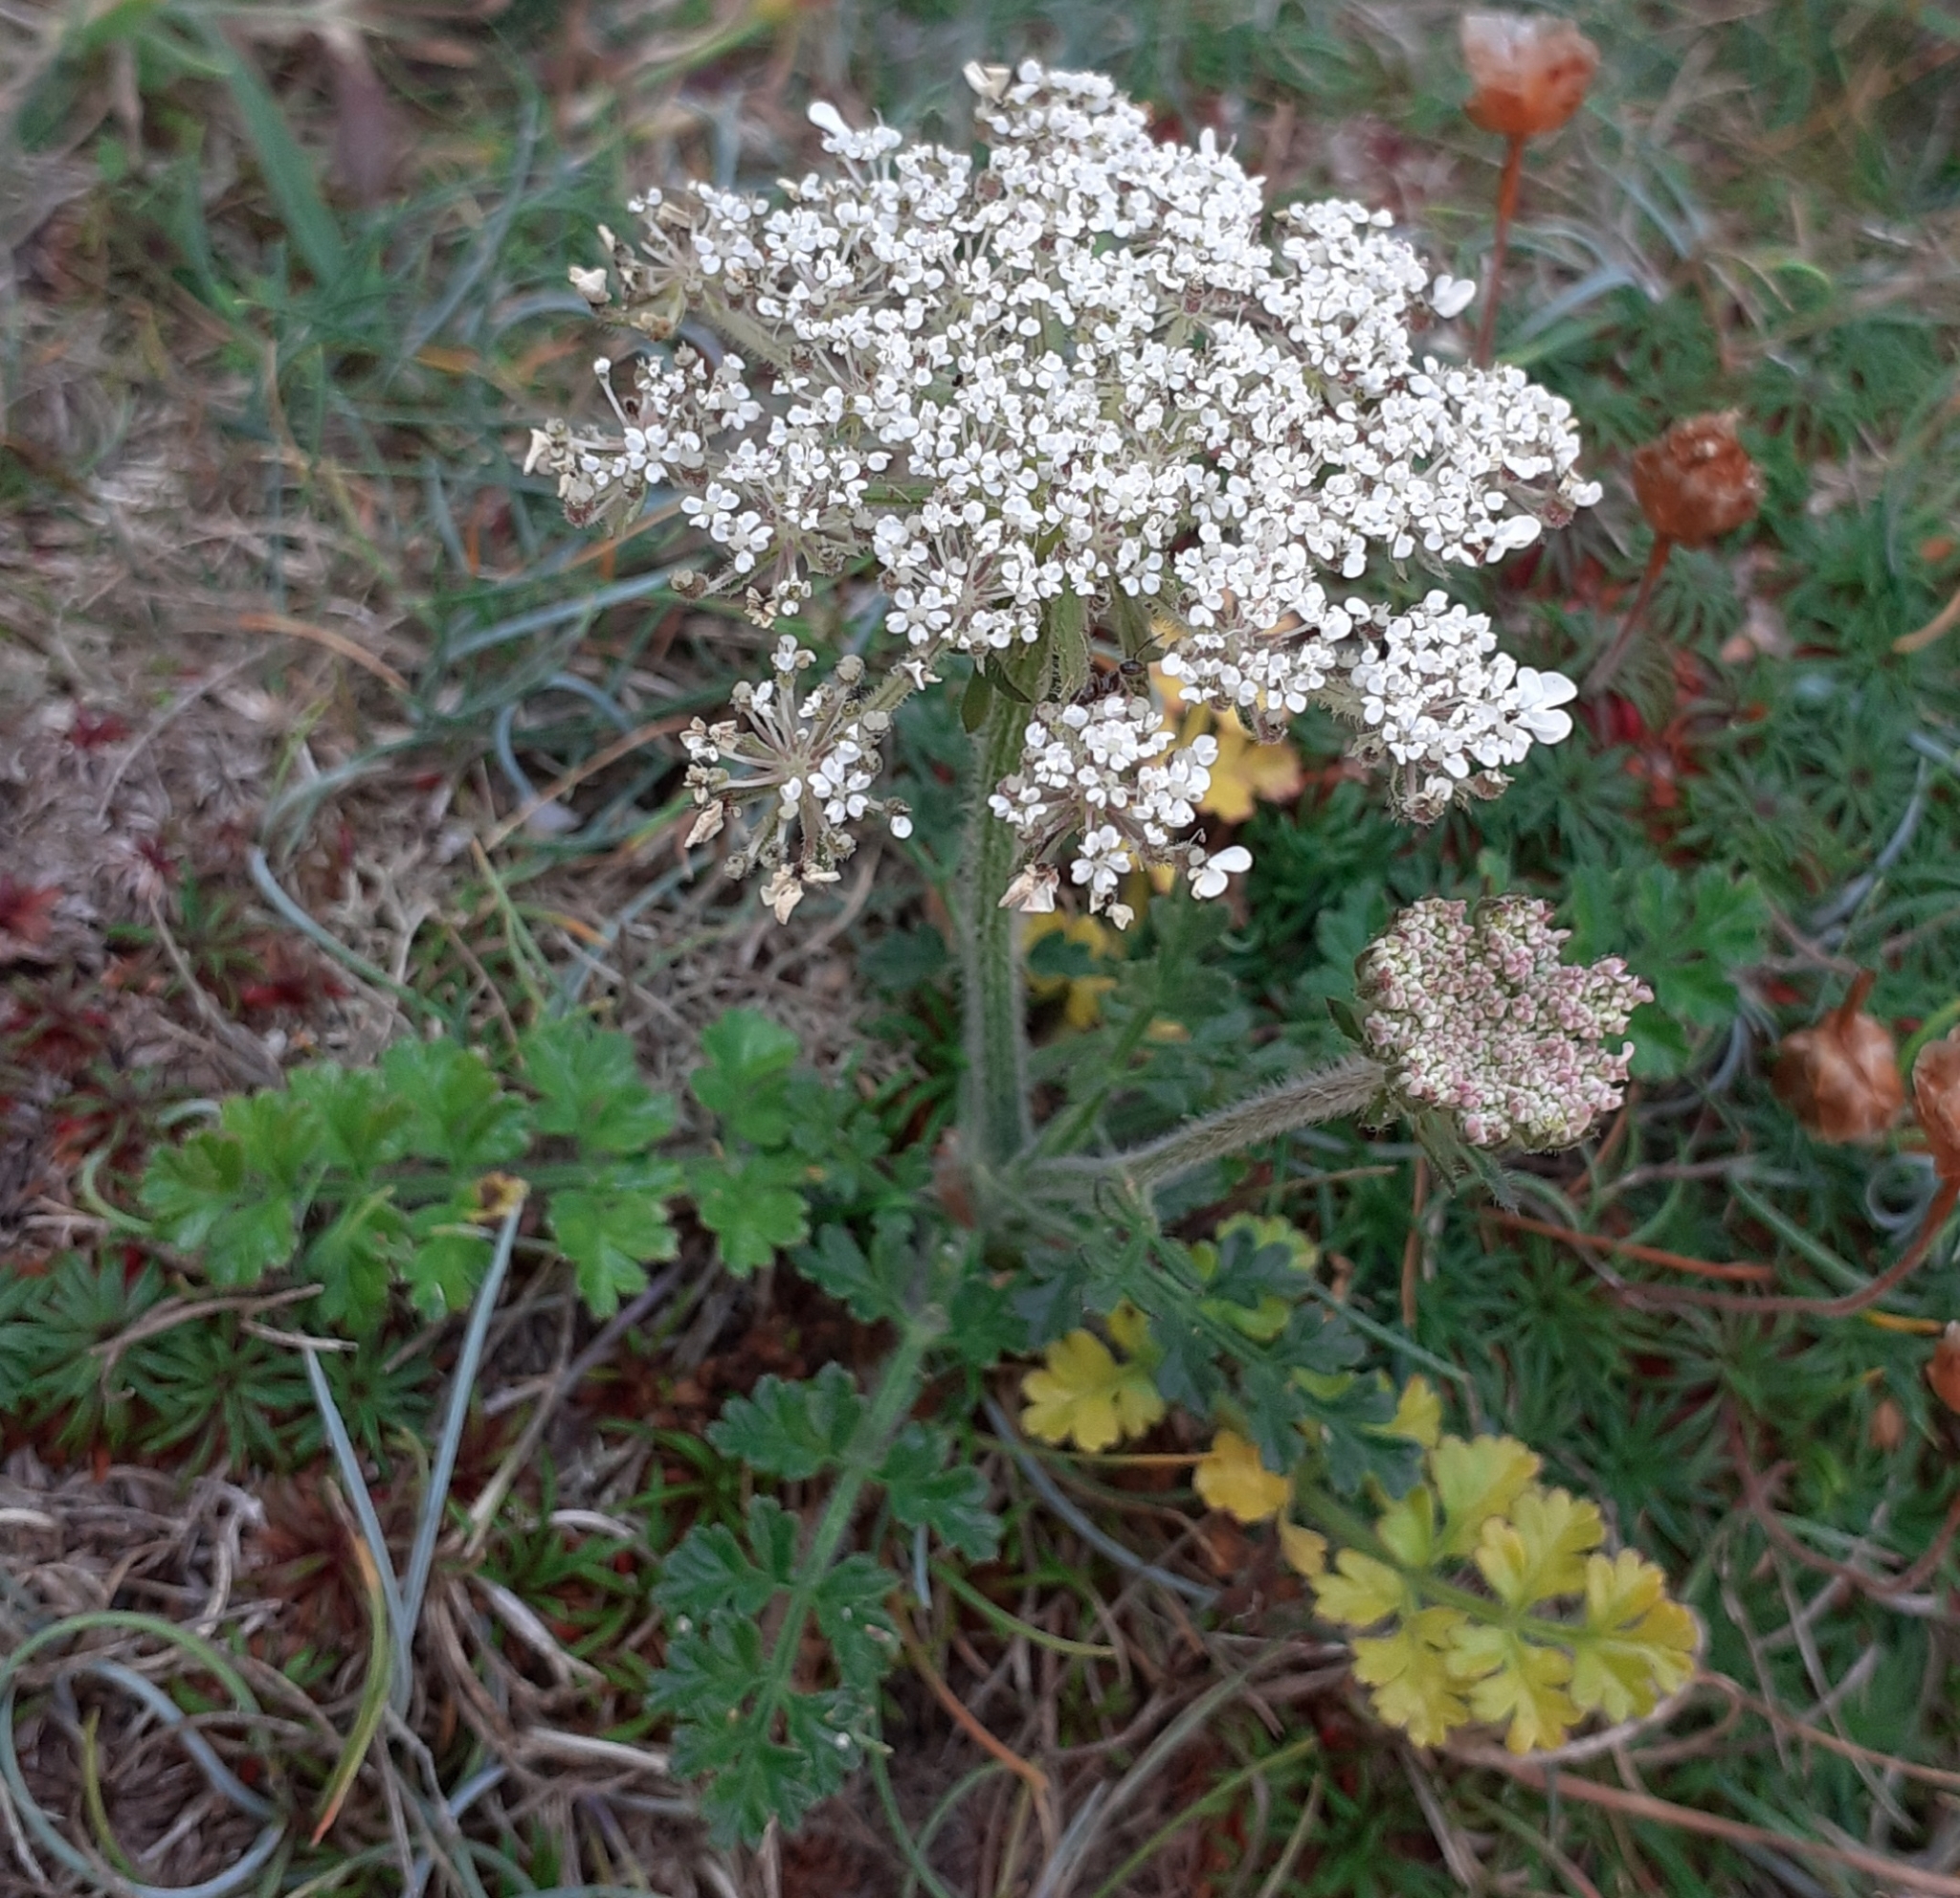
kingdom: Plantae
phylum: Tracheophyta
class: Magnoliopsida
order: Apiales
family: Apiaceae
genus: Daucus
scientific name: Daucus carota
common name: Wild carrot
